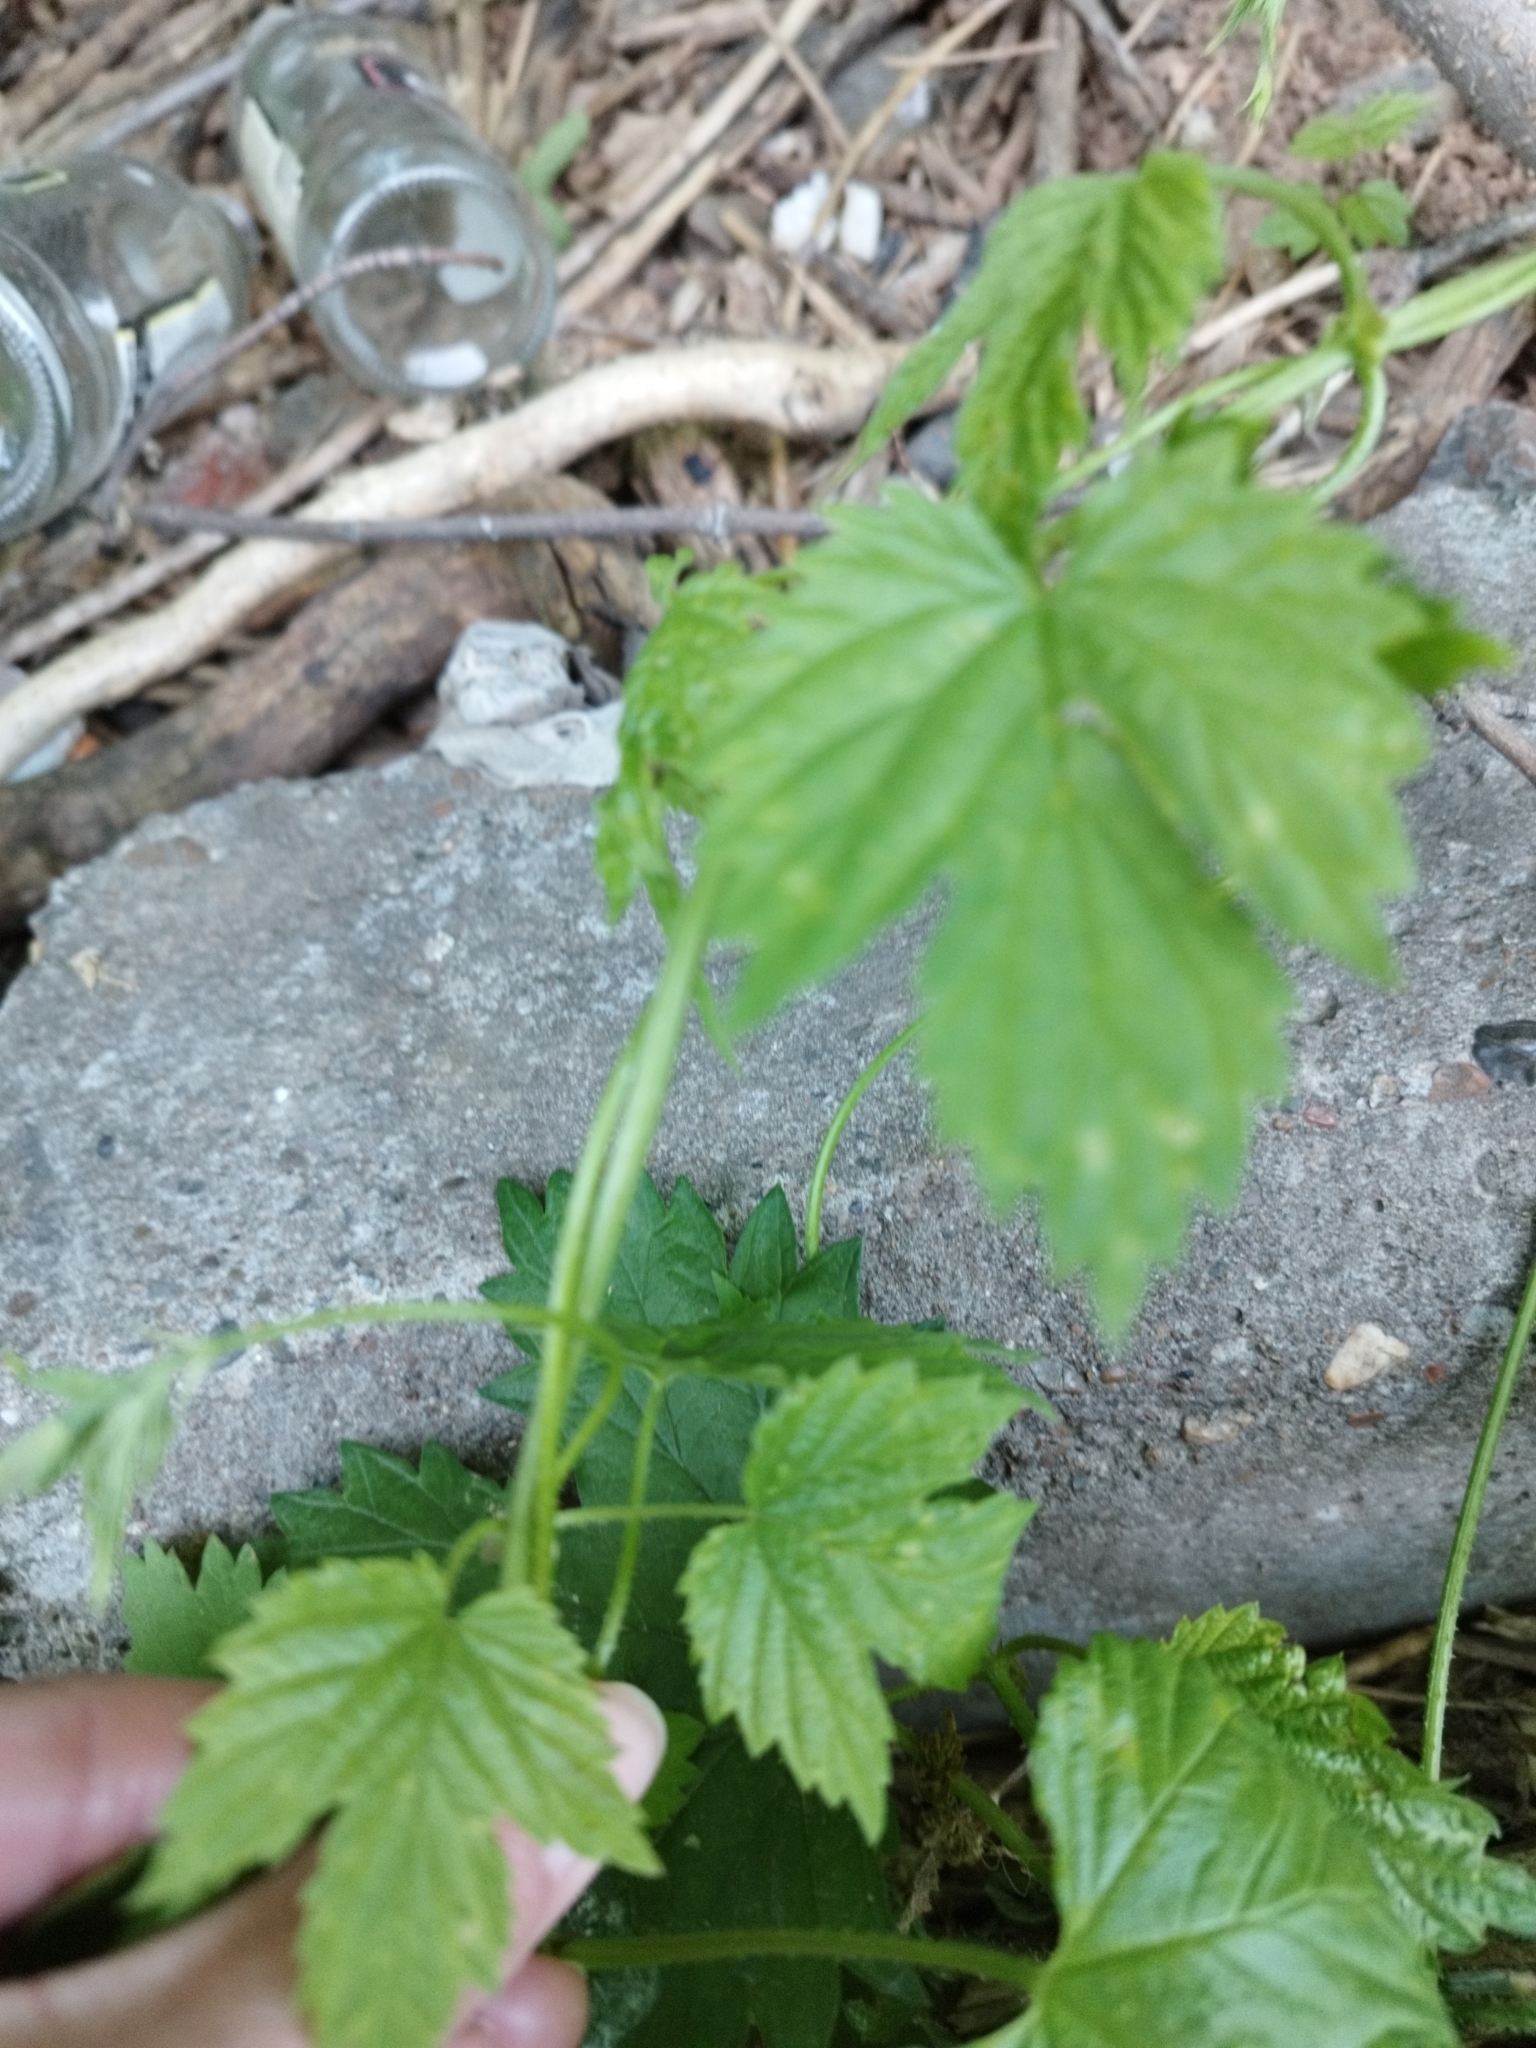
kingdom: Plantae
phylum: Tracheophyta
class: Magnoliopsida
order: Rosales
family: Cannabaceae
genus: Humulus
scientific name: Humulus lupulus
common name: Hop
